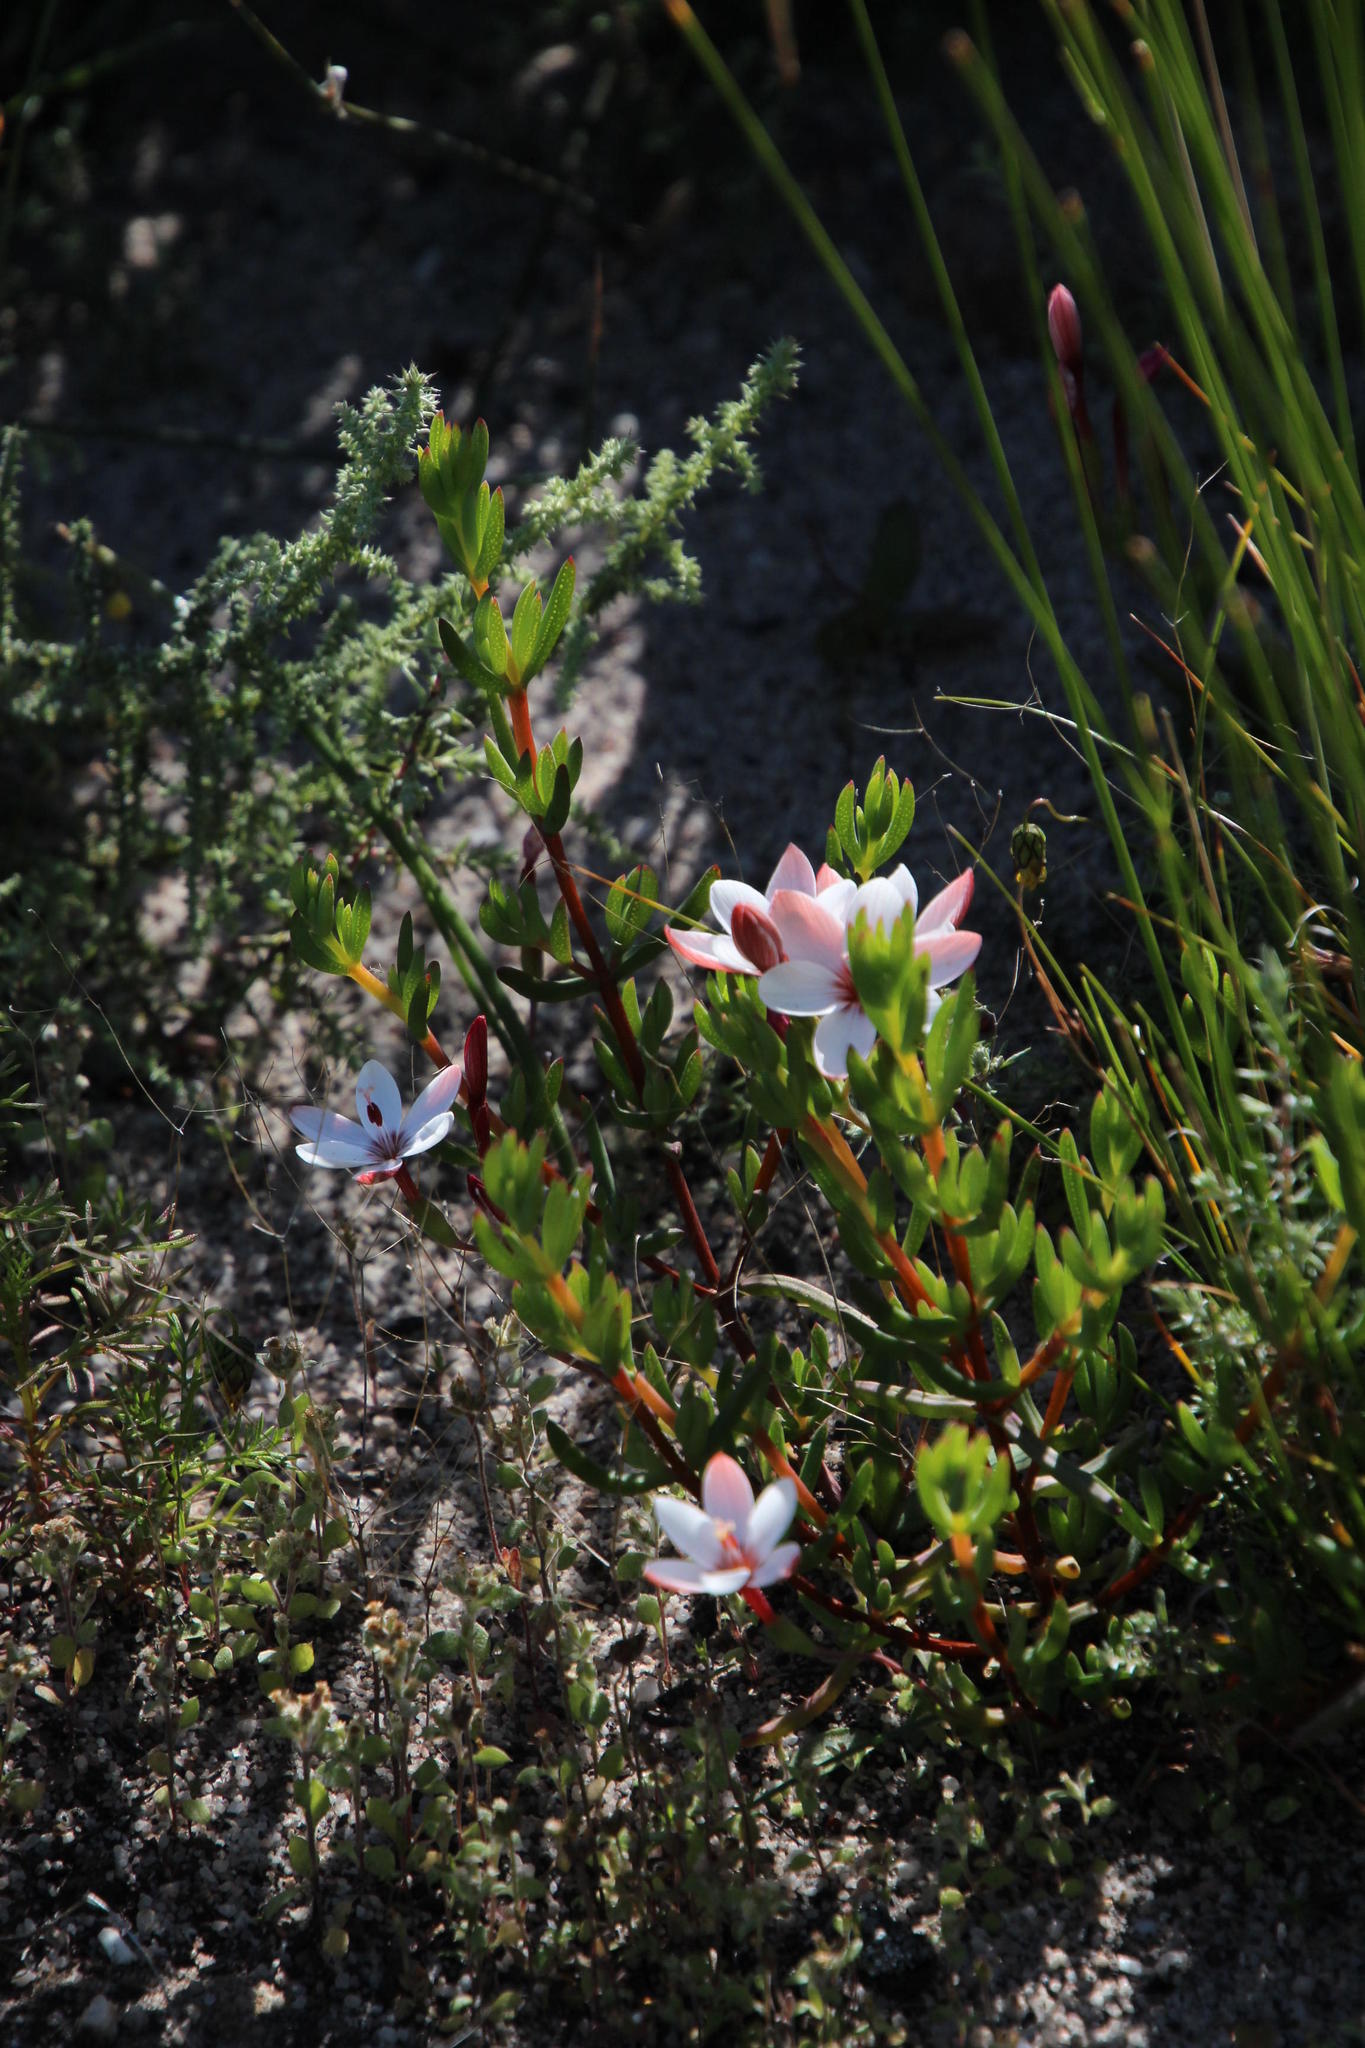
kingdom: Plantae
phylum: Tracheophyta
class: Liliopsida
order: Asparagales
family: Iridaceae
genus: Geissorhiza
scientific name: Geissorhiza ovata
